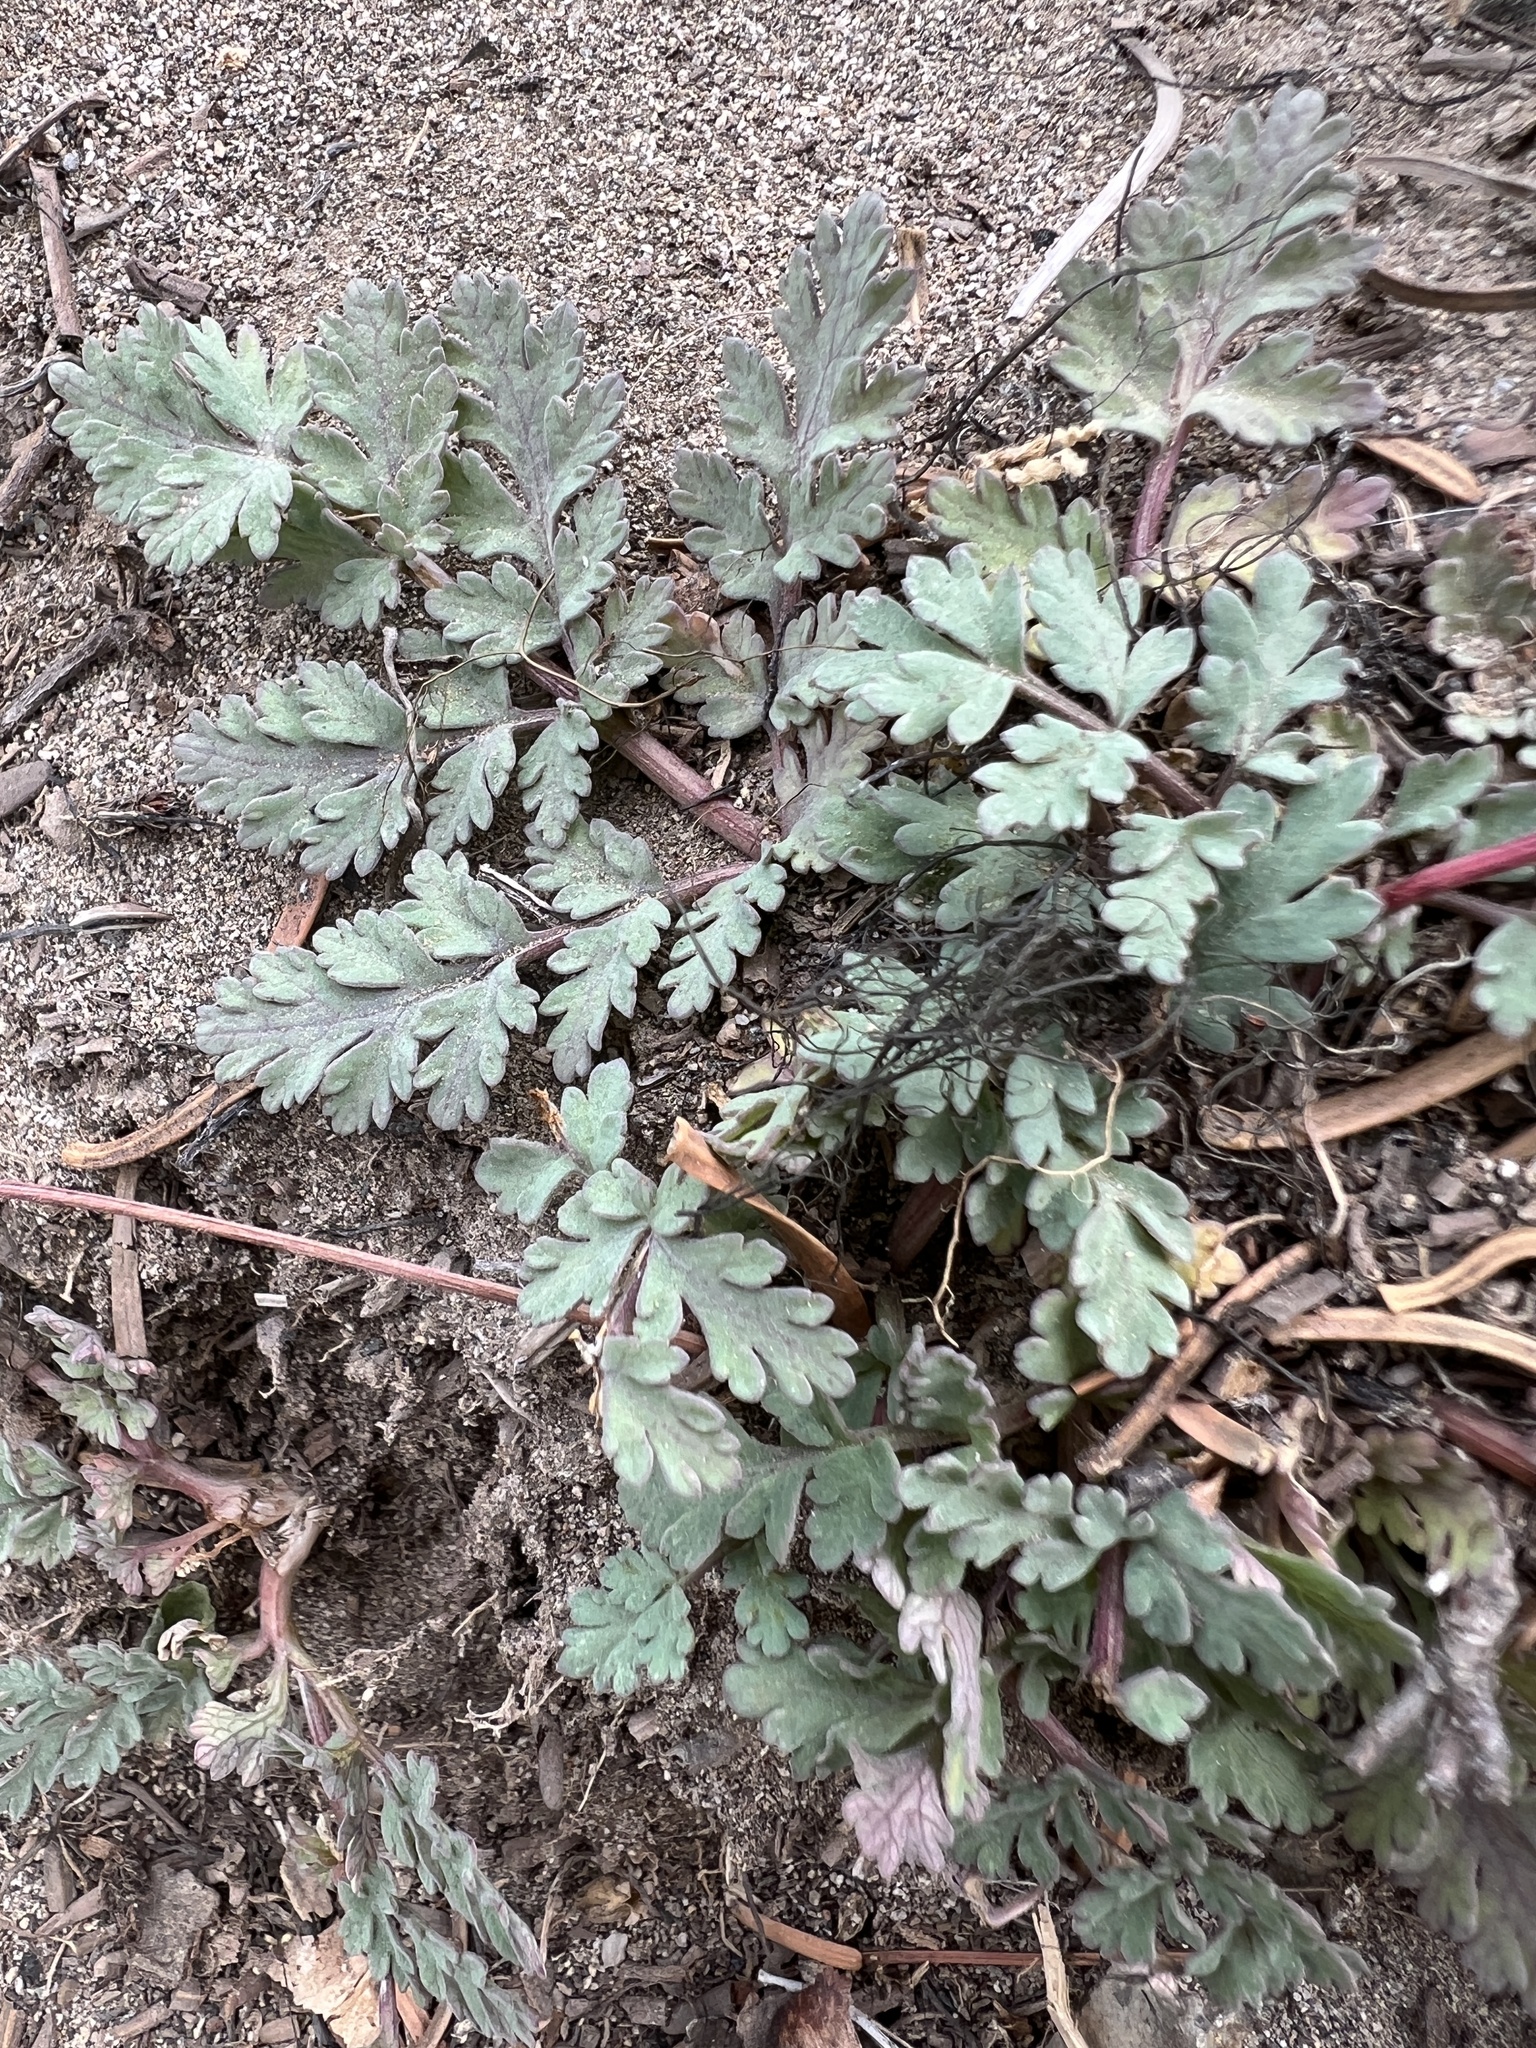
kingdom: Plantae
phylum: Tracheophyta
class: Magnoliopsida
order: Apiales
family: Apiaceae
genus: Lomatium
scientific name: Lomatium martindalei
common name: Cascade desert-parsley
